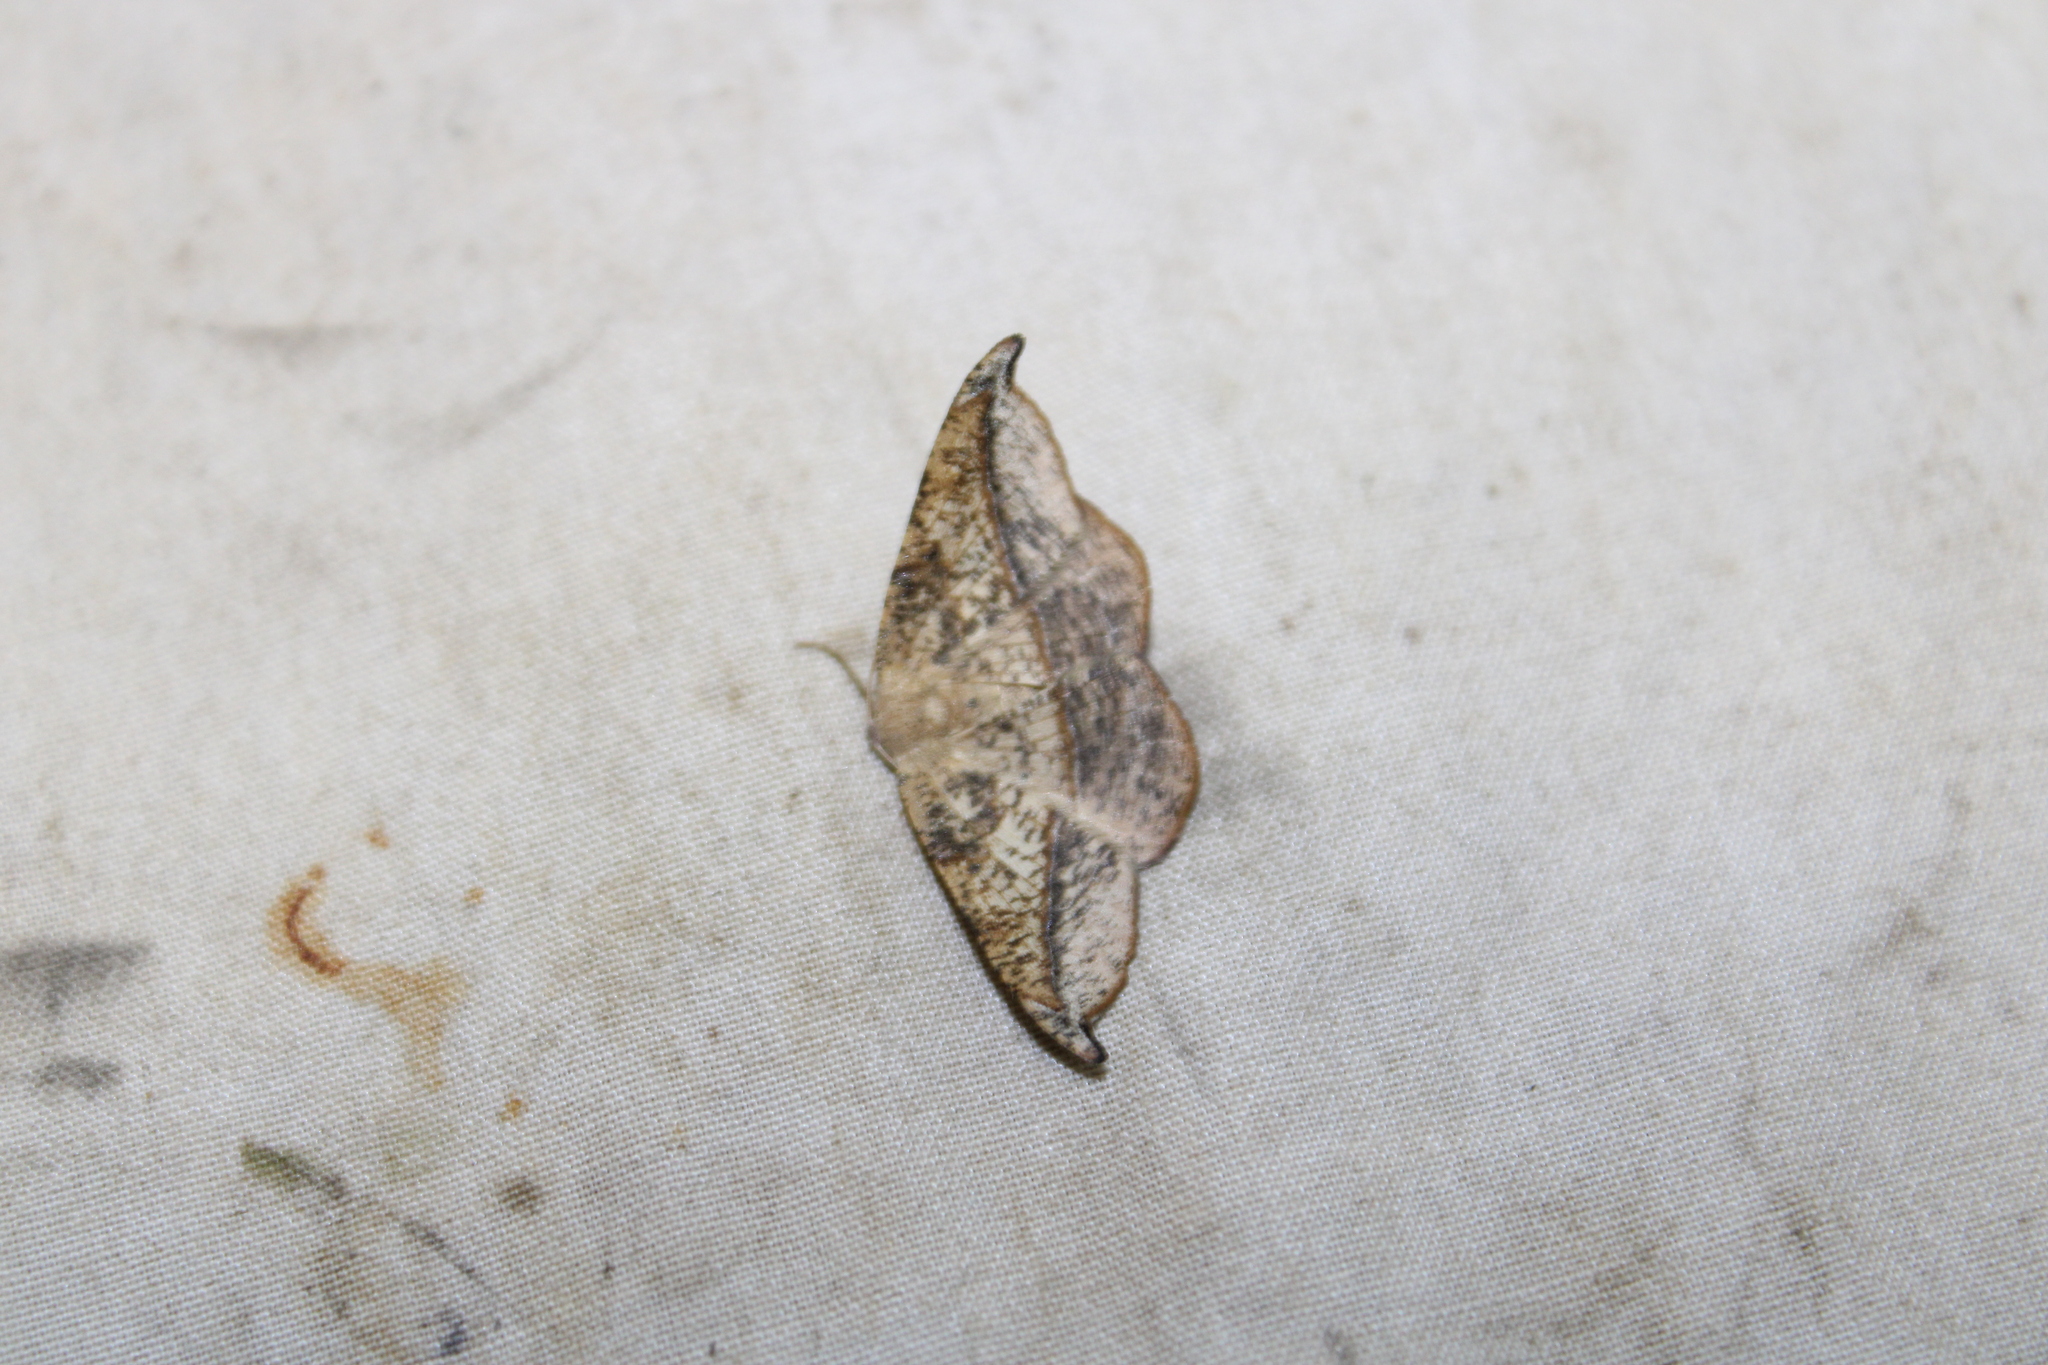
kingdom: Animalia
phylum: Arthropoda
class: Insecta
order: Lepidoptera
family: Geometridae
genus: Patalene
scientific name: Patalene olyzonaria
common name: Juniper geometer moth
